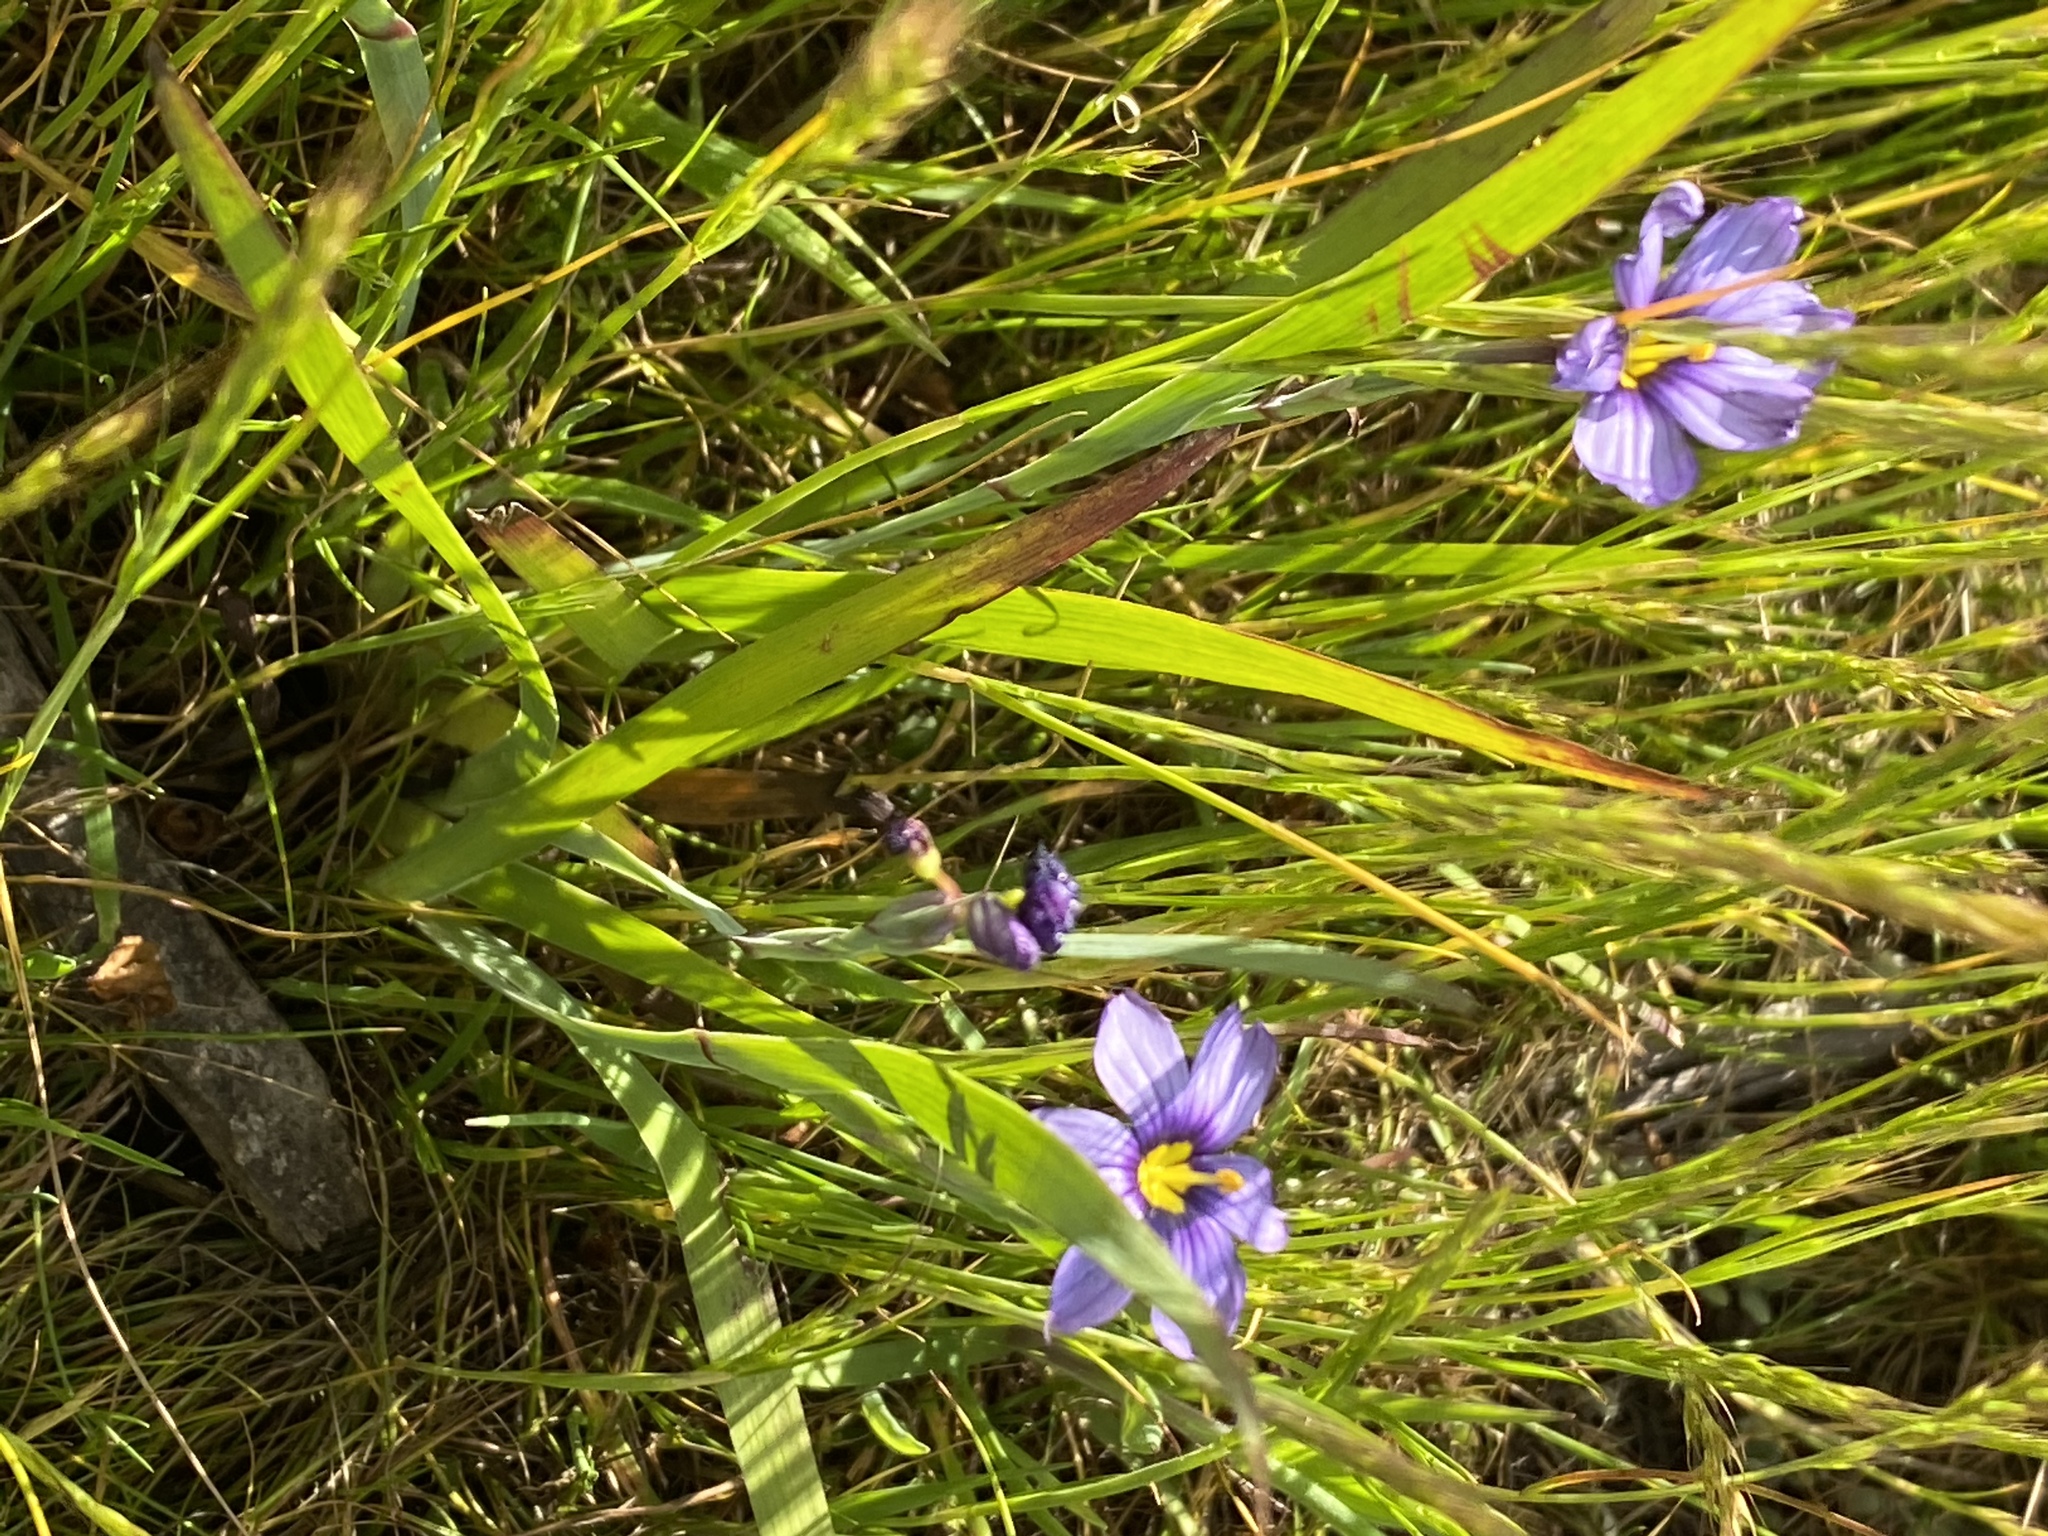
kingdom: Plantae
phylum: Tracheophyta
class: Liliopsida
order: Asparagales
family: Iridaceae
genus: Sisyrinchium
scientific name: Sisyrinchium bellum
